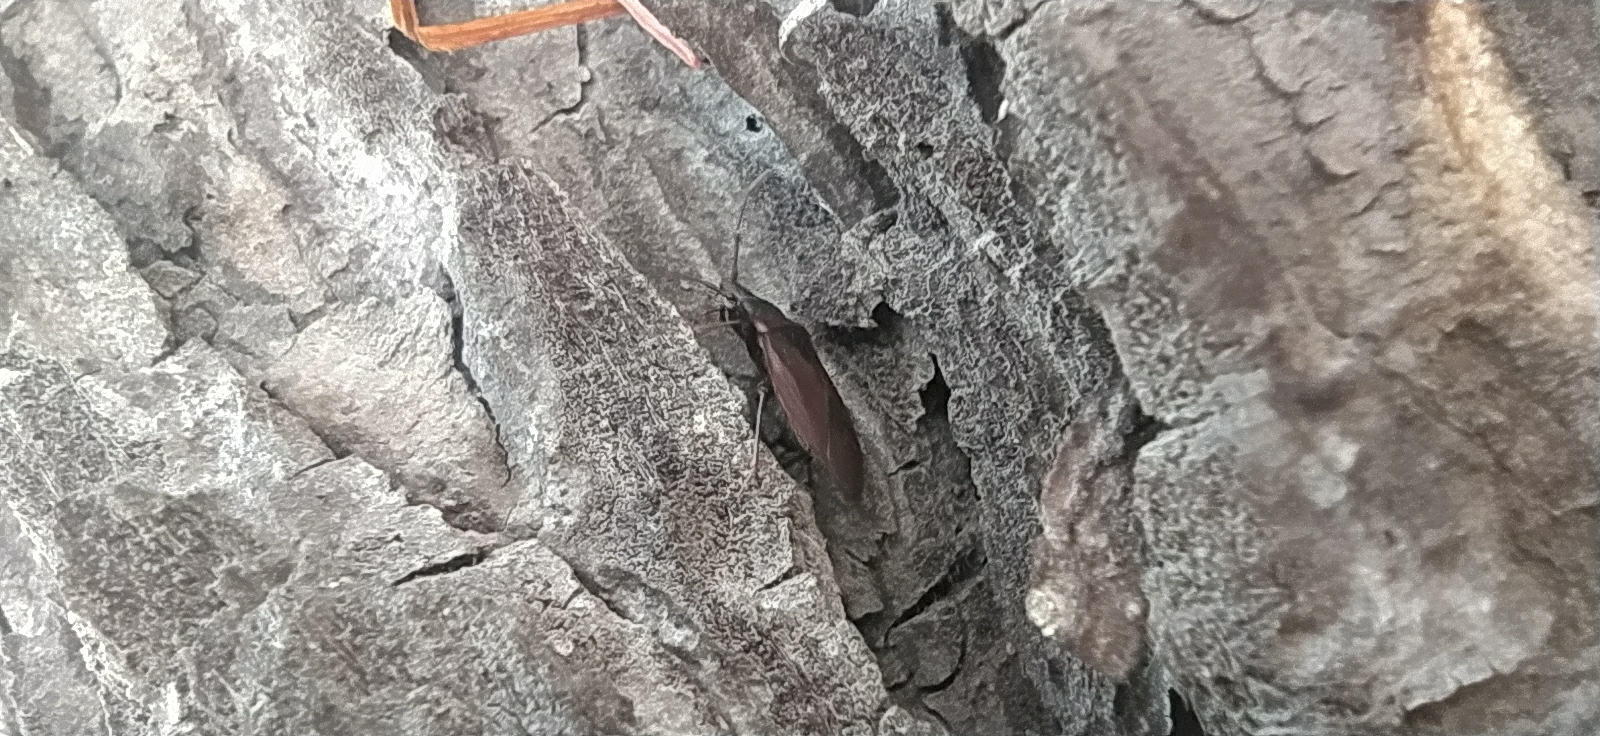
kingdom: Animalia
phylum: Arthropoda
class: Insecta
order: Hemiptera
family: Rhyparochromidae
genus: Gastrodes
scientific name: Gastrodes grossipes
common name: Pine cone bug
